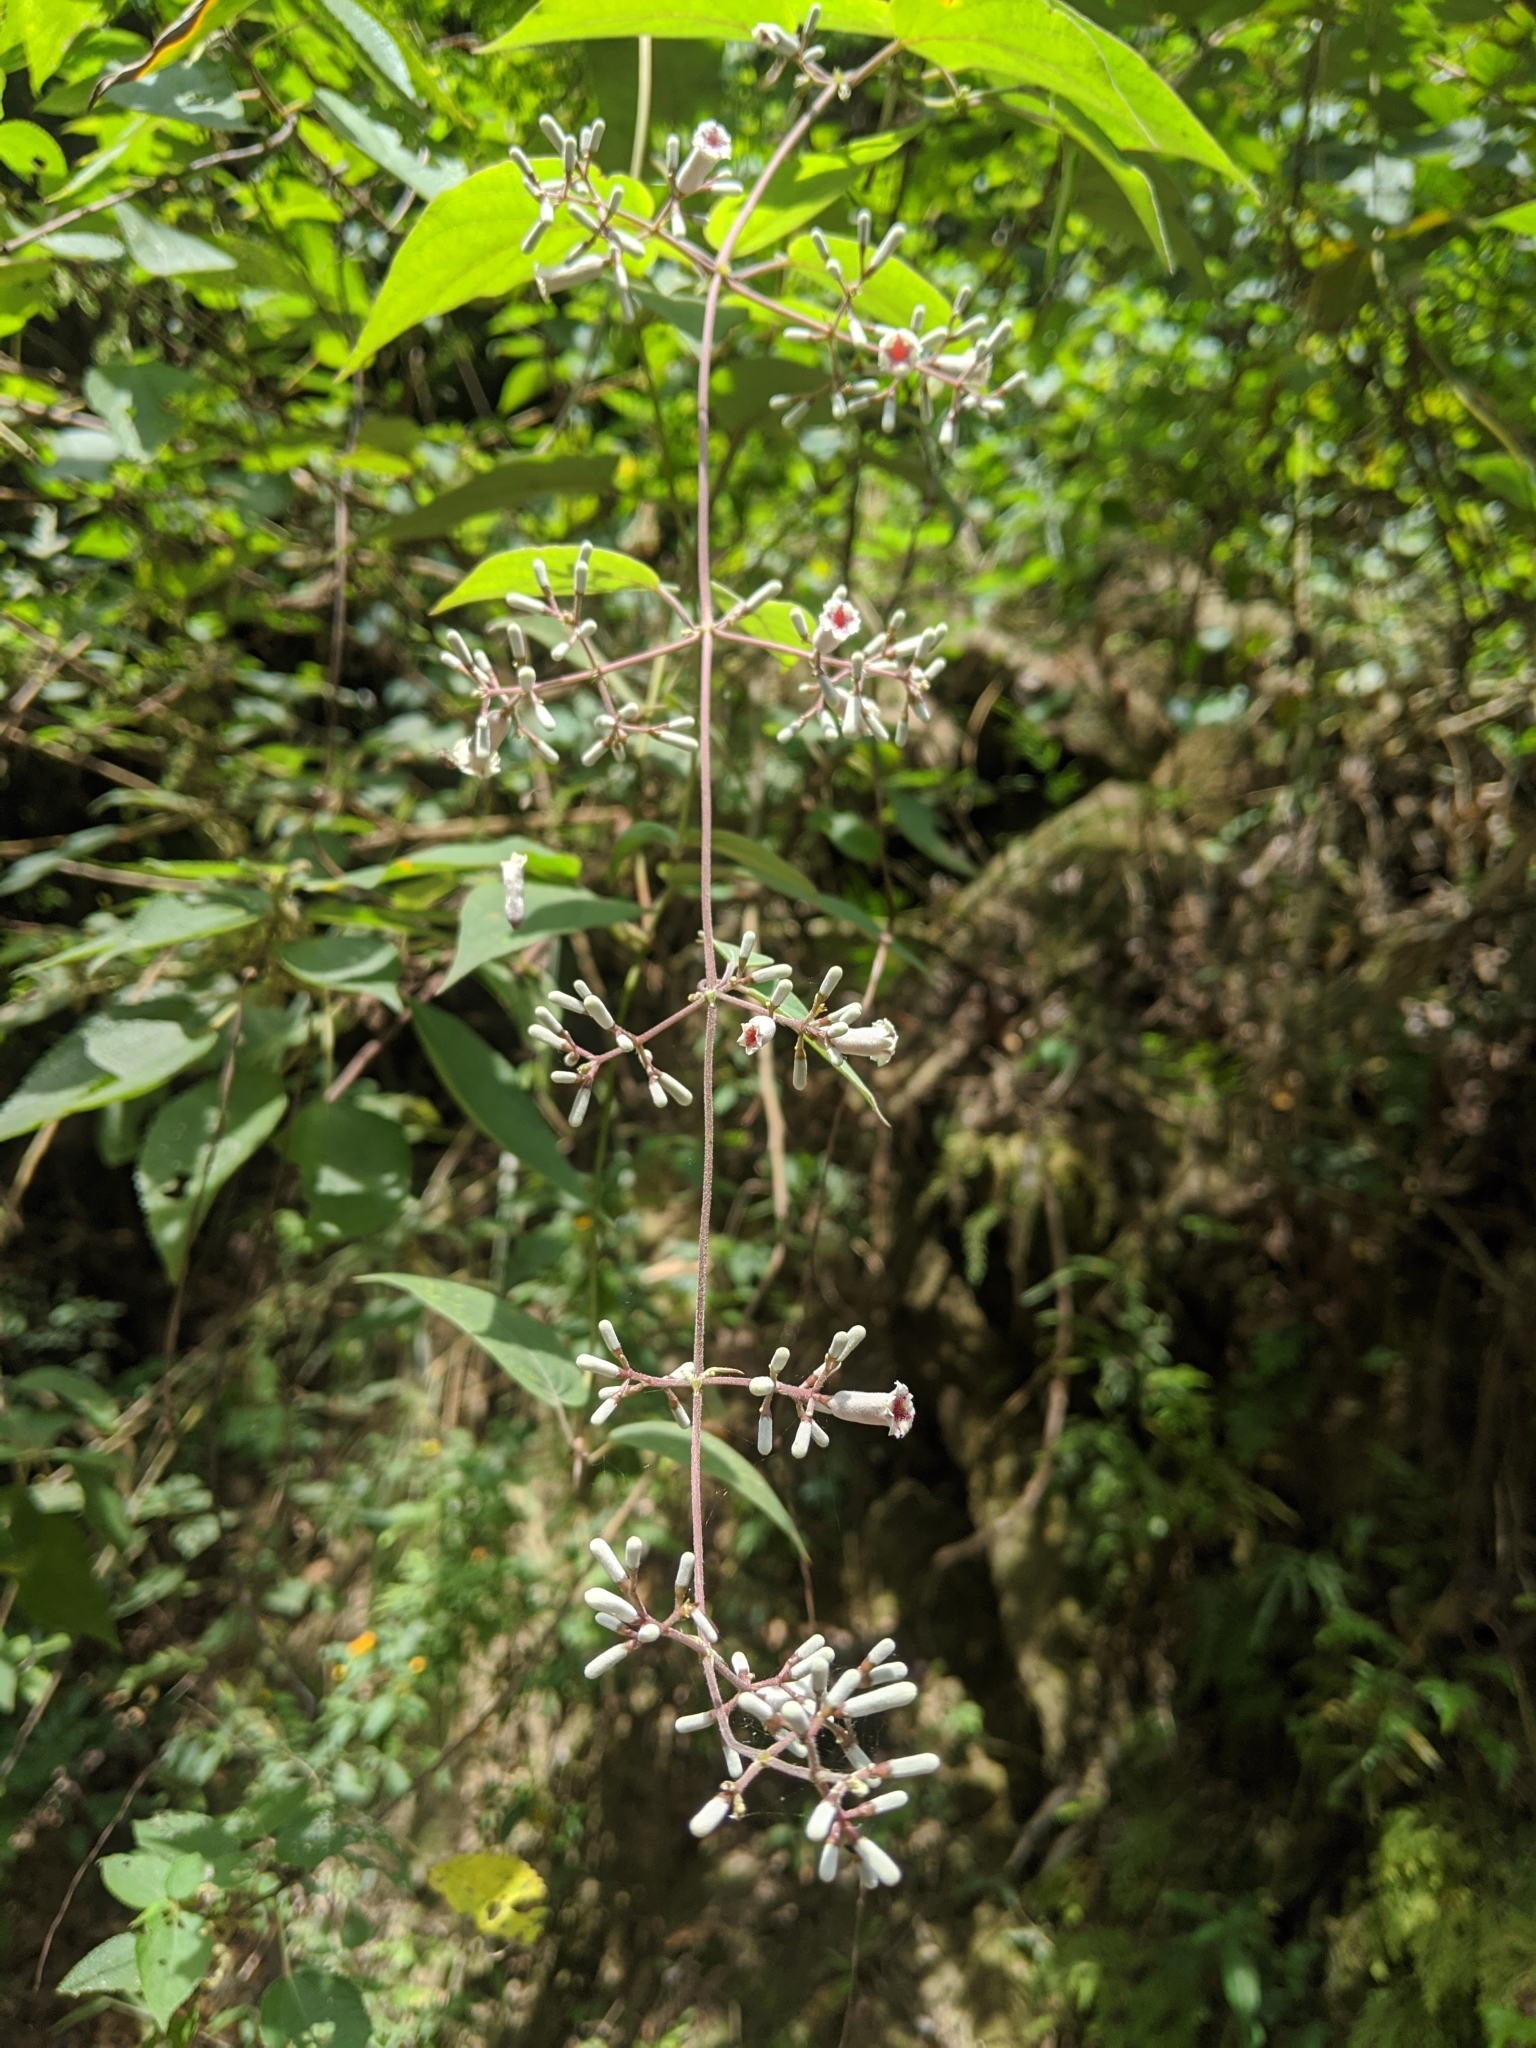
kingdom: Plantae
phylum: Tracheophyta
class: Magnoliopsida
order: Gentianales
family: Rubiaceae
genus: Paederia
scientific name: Paederia cavaleriei
